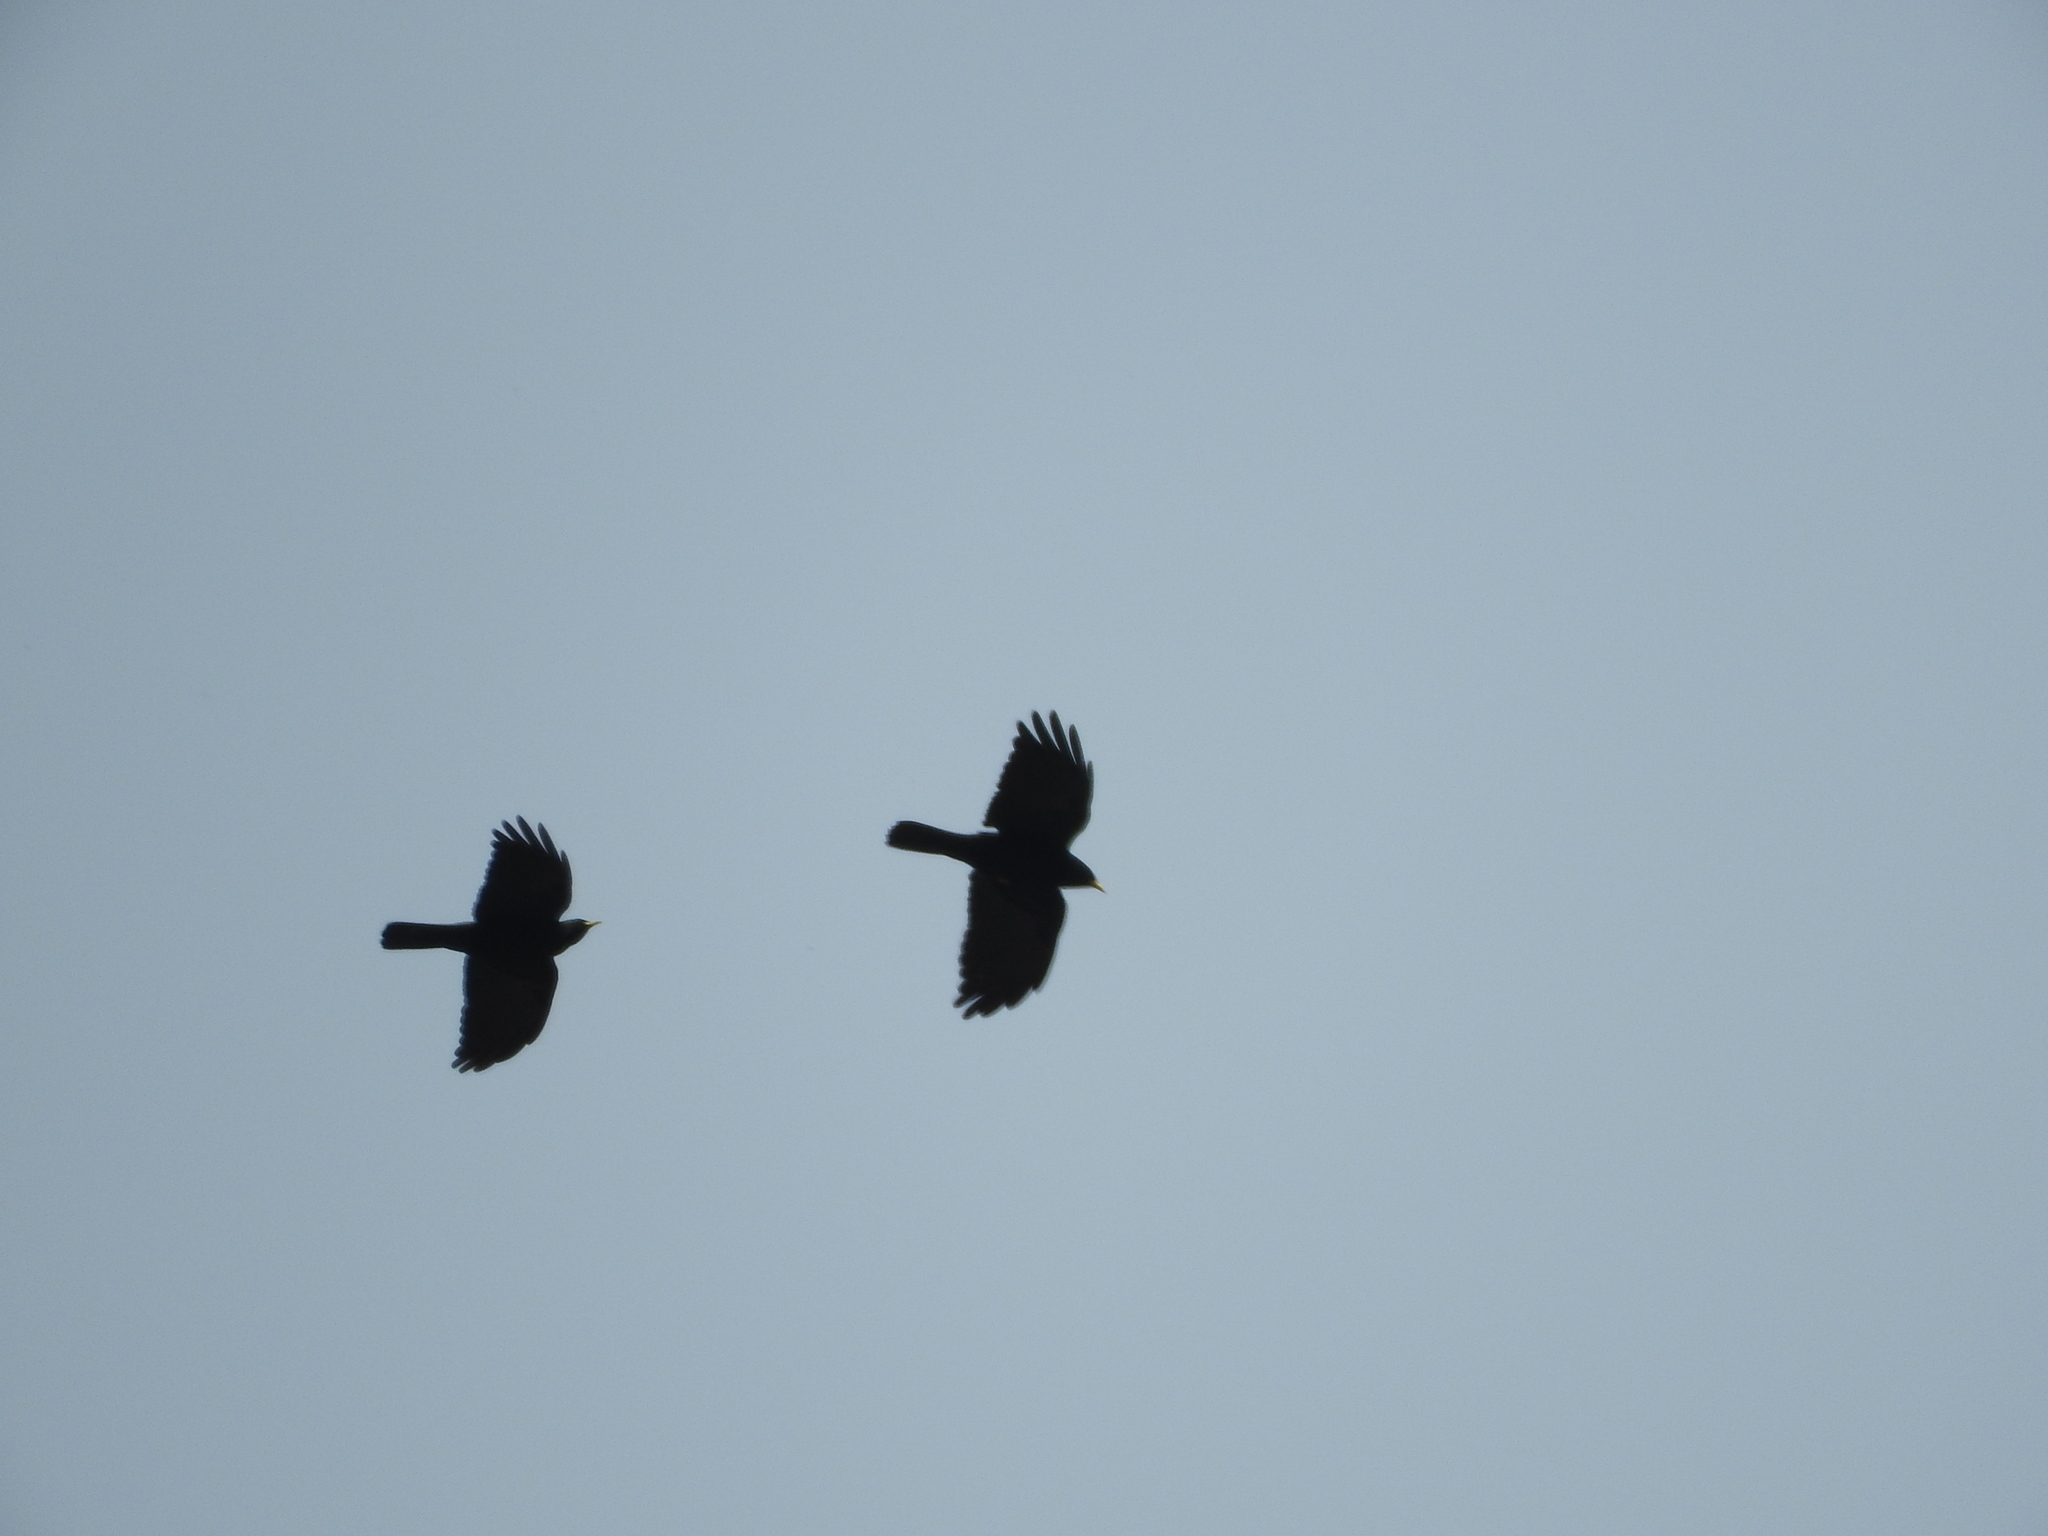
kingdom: Animalia
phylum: Chordata
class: Aves
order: Passeriformes
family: Corvidae
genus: Pyrrhocorax
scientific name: Pyrrhocorax graculus
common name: Alpine chough
